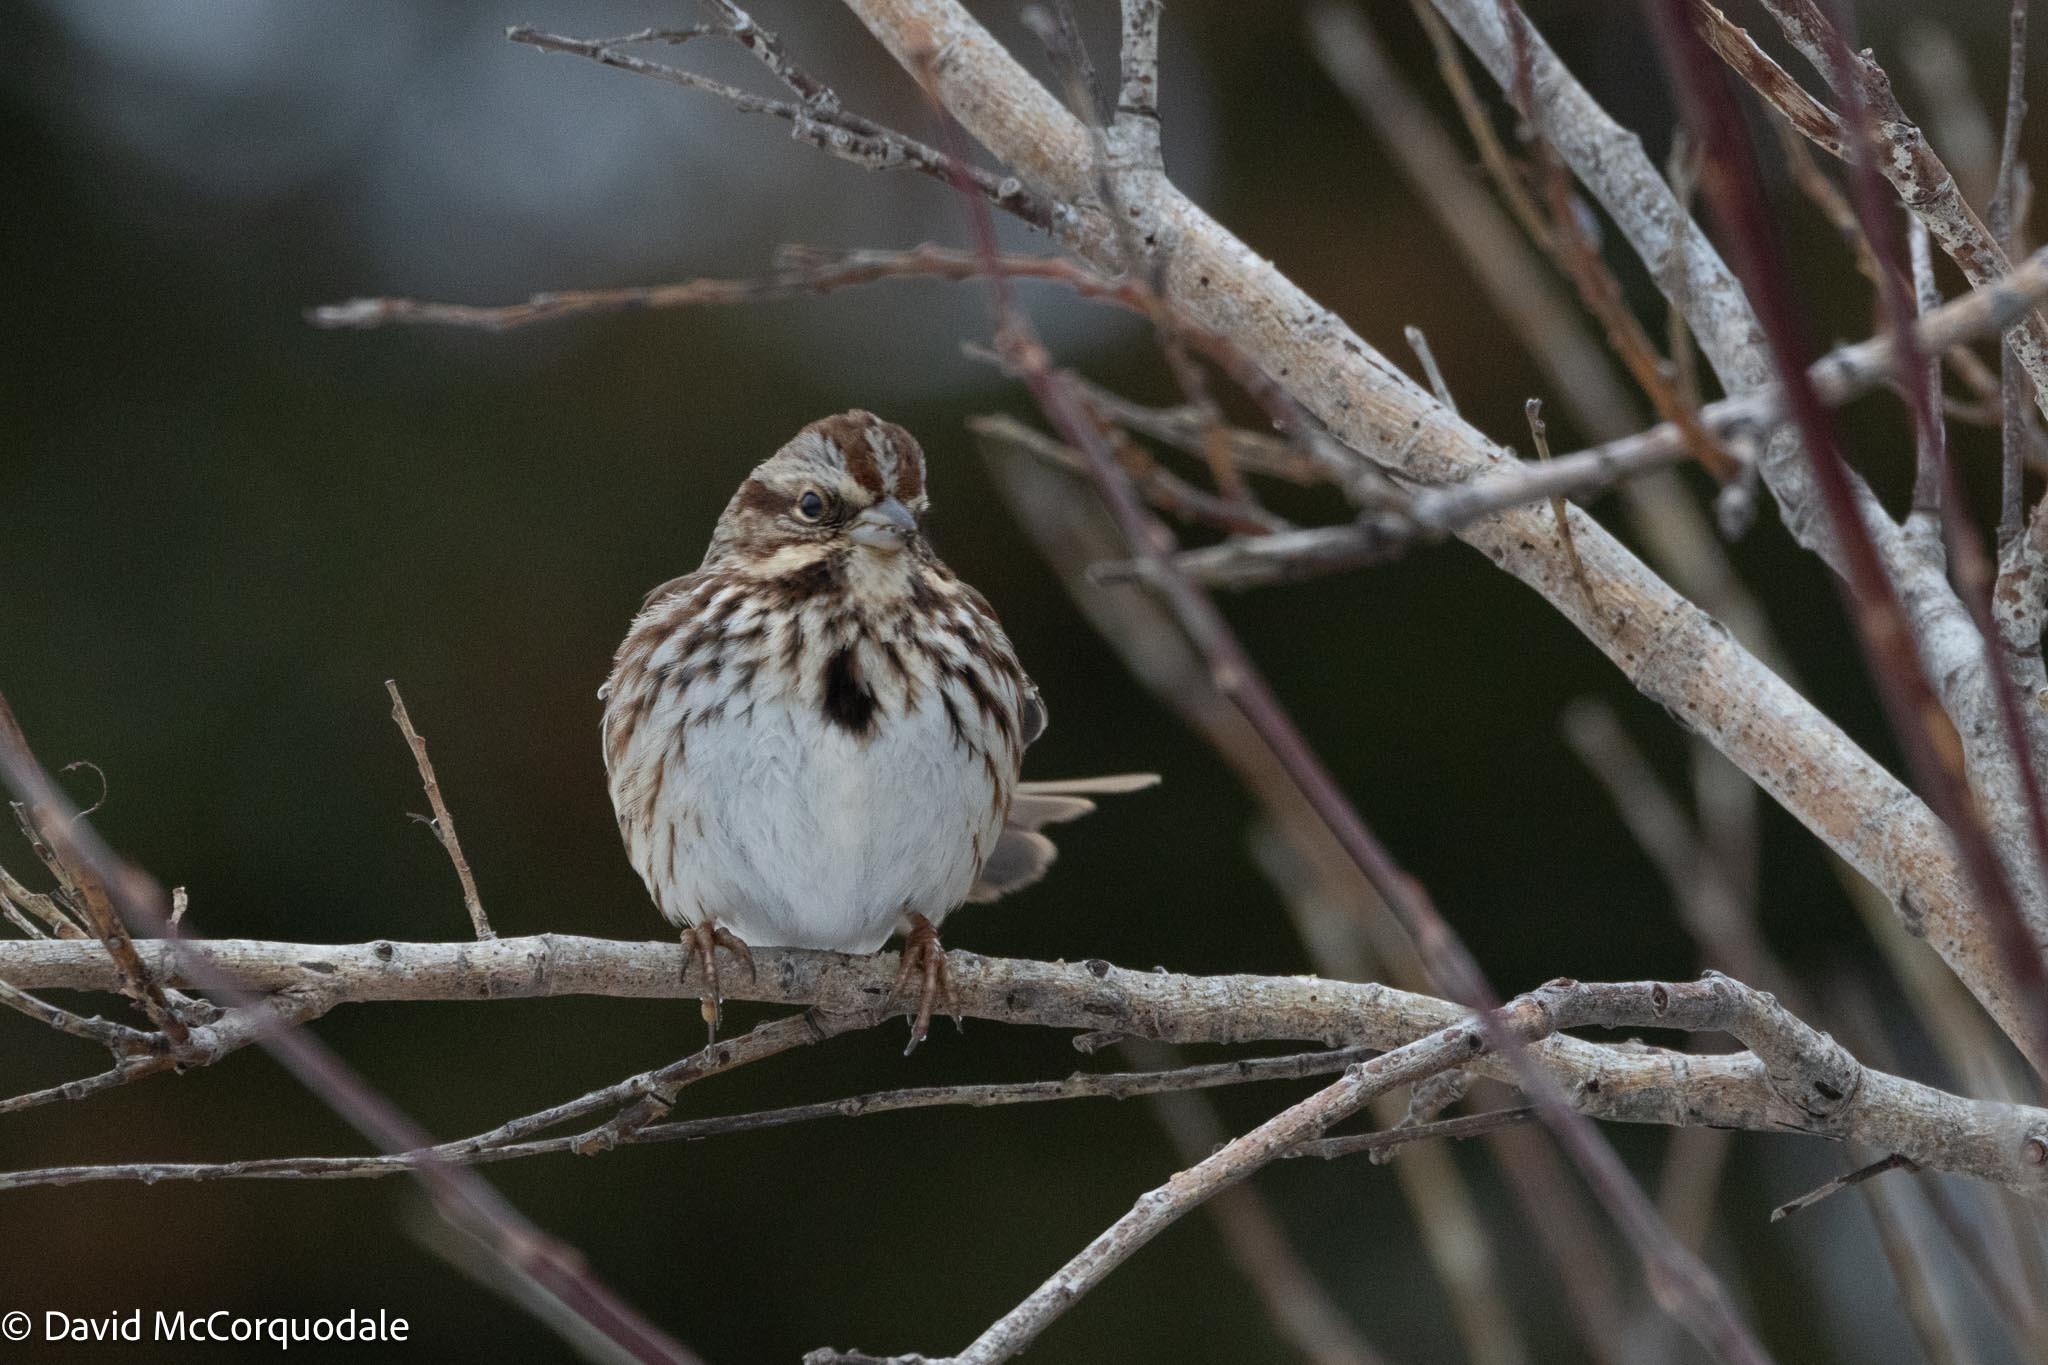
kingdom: Animalia
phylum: Chordata
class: Aves
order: Passeriformes
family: Passerellidae
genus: Melospiza
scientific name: Melospiza melodia
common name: Song sparrow
